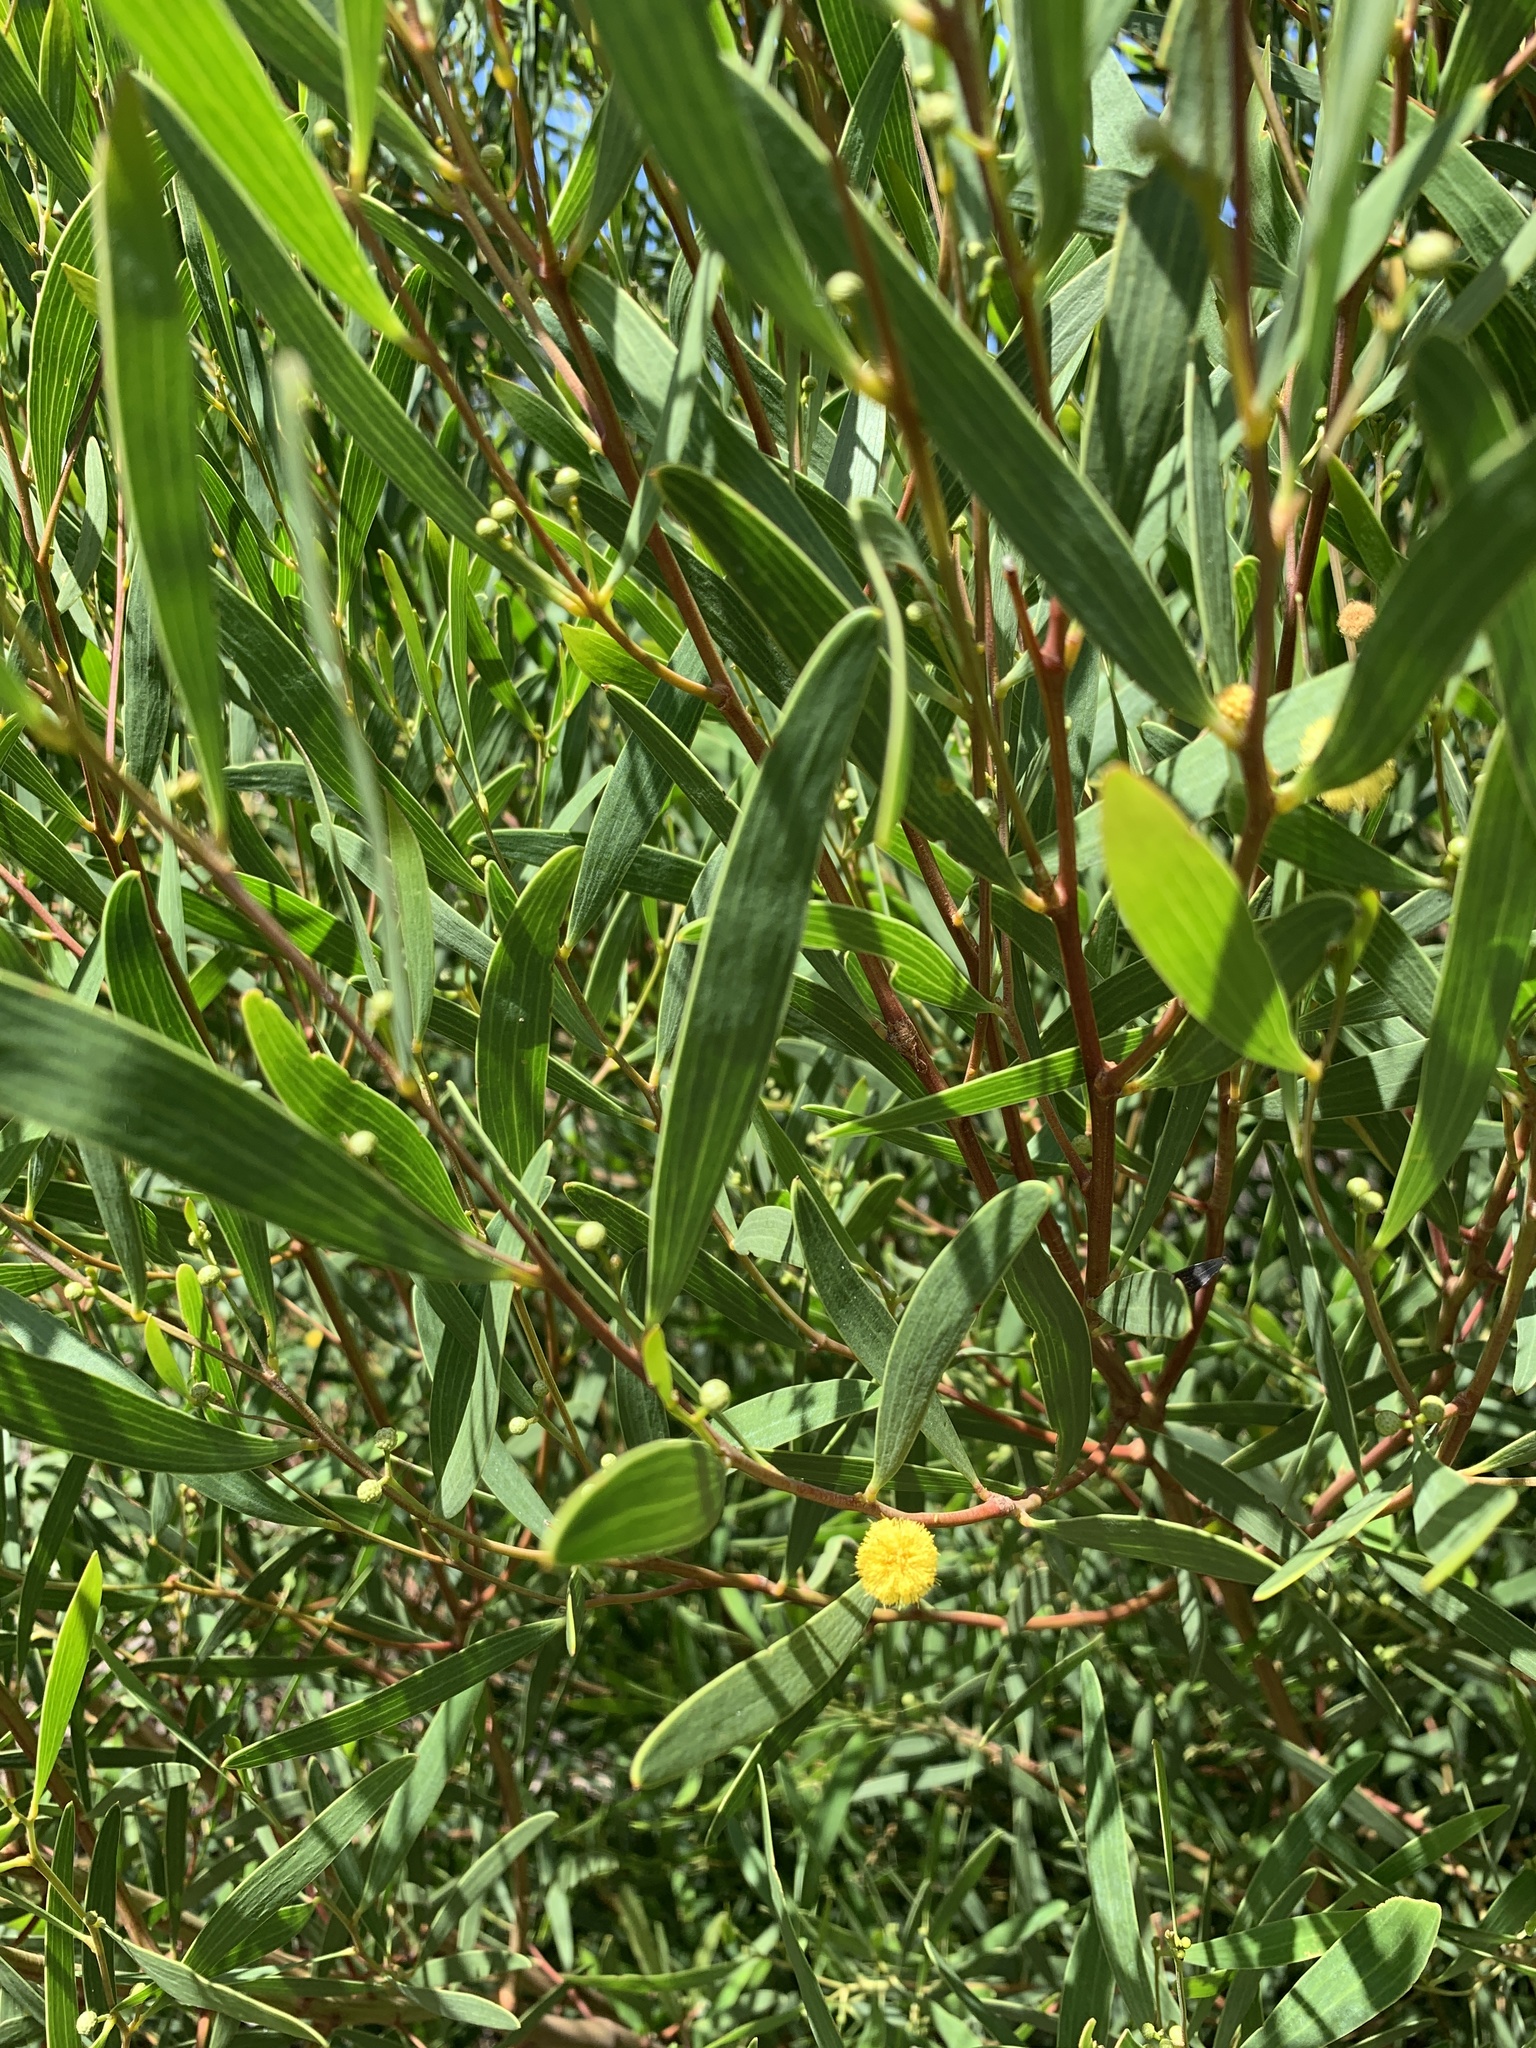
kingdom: Plantae
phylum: Tracheophyta
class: Magnoliopsida
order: Fabales
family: Fabaceae
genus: Acacia
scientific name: Acacia cyclops
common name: Coastal wattle
